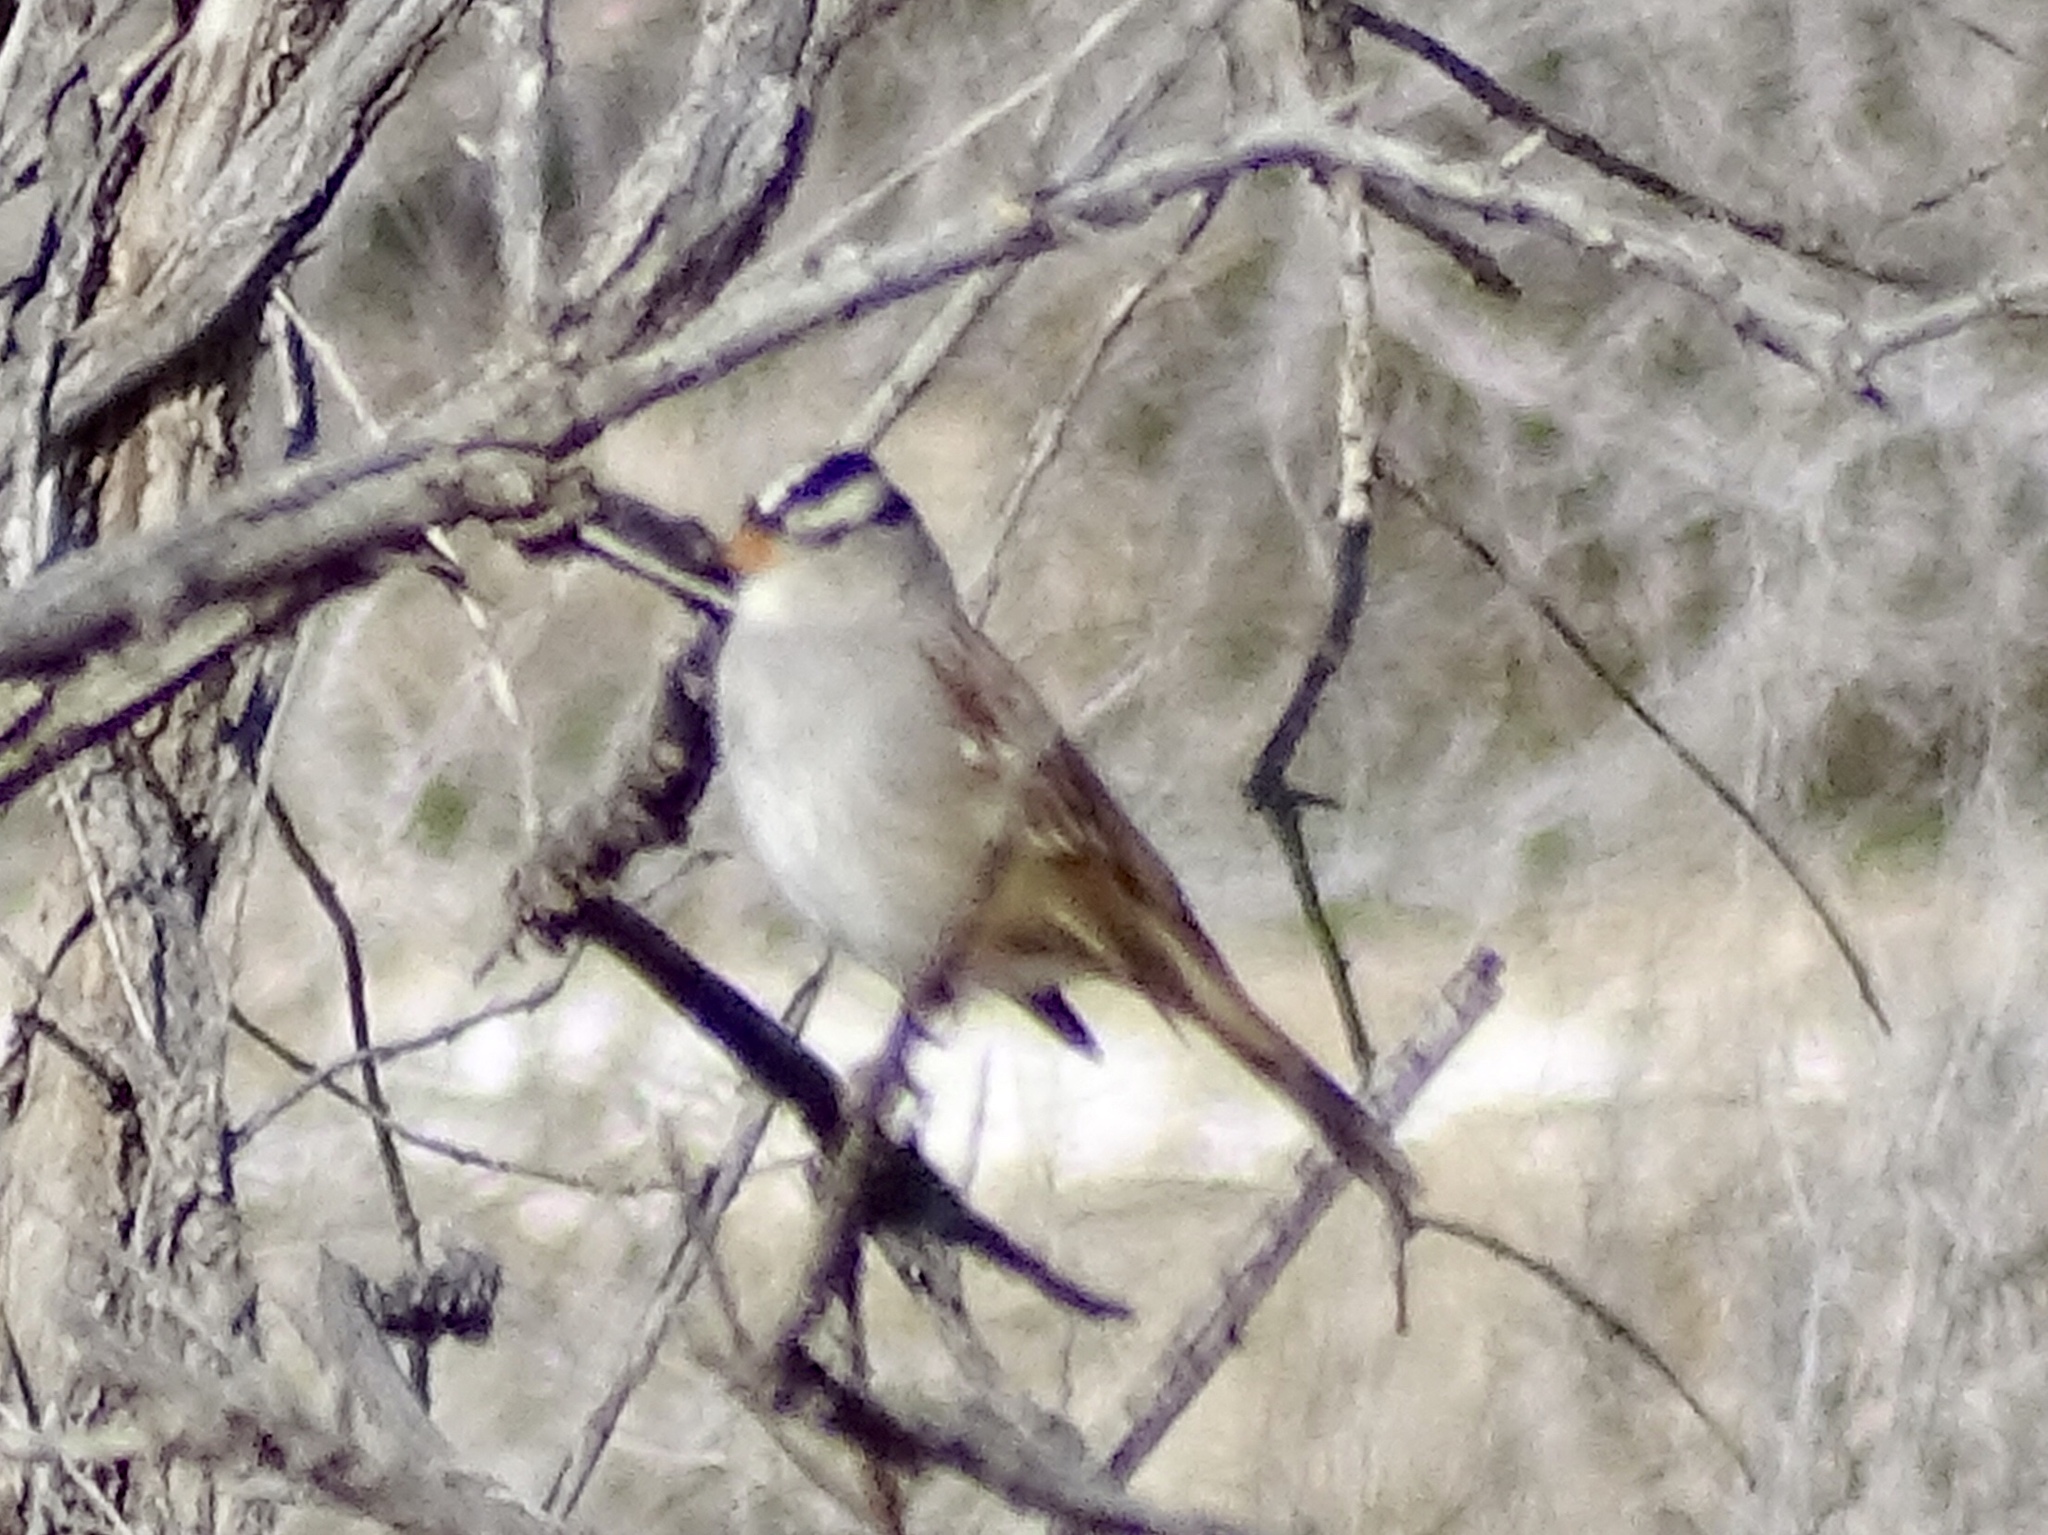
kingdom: Animalia
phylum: Chordata
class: Aves
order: Passeriformes
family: Passerellidae
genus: Zonotrichia
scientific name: Zonotrichia leucophrys
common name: White-crowned sparrow
